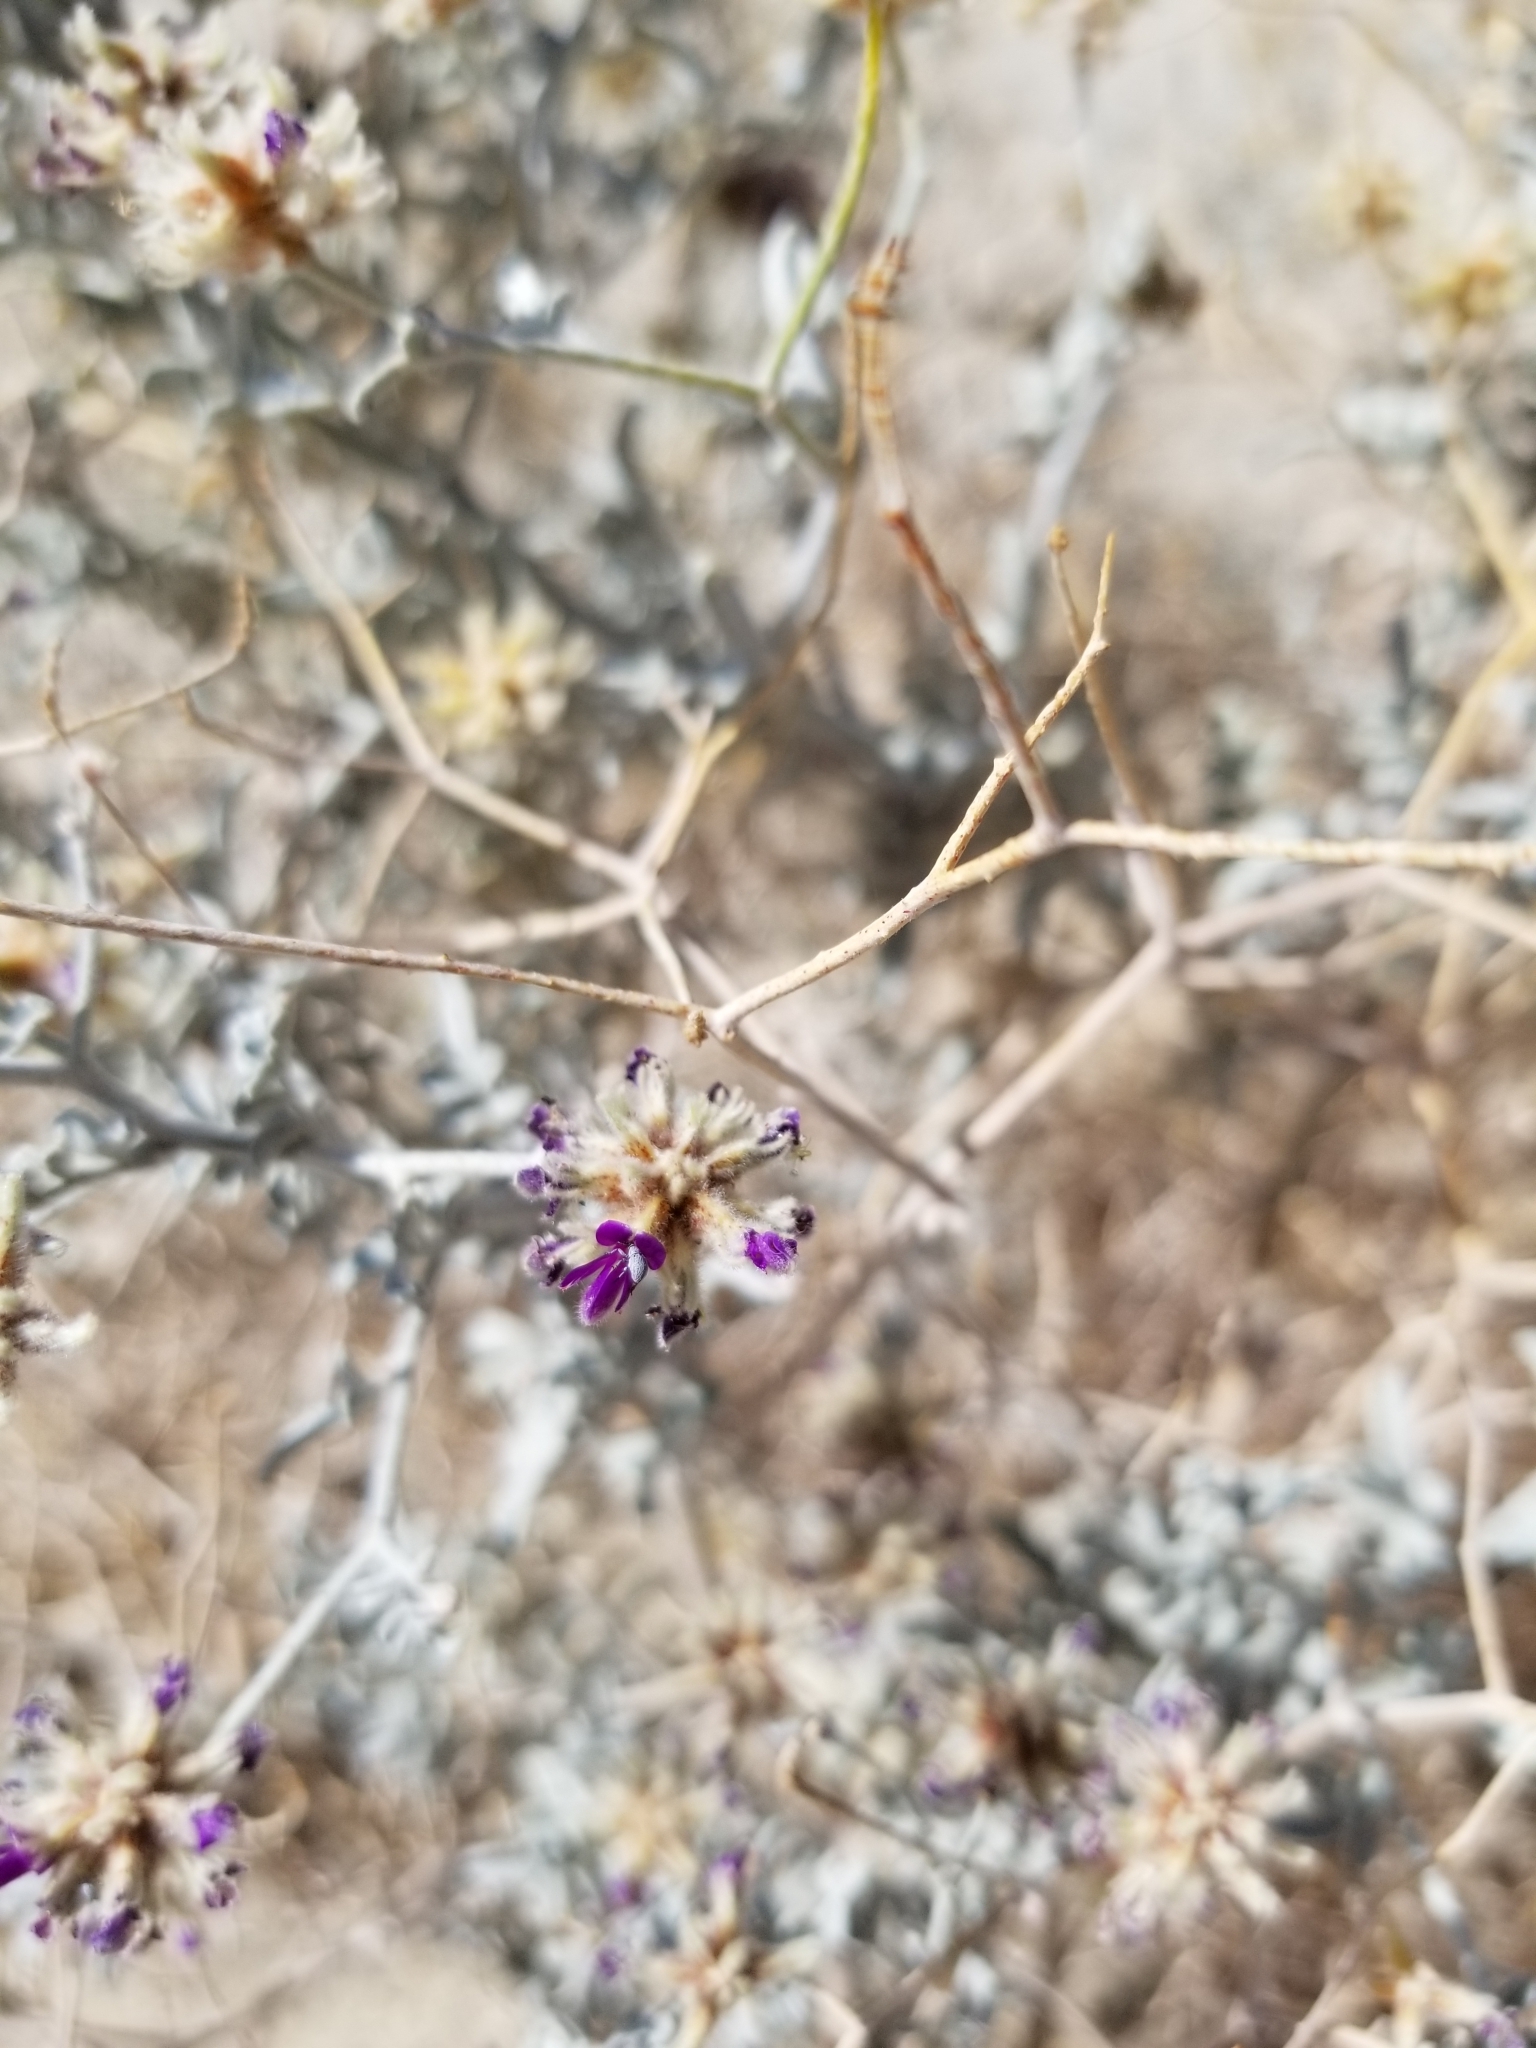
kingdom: Plantae
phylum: Tracheophyta
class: Magnoliopsida
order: Fabales
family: Fabaceae
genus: Psorothamnus
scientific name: Psorothamnus emoryi
